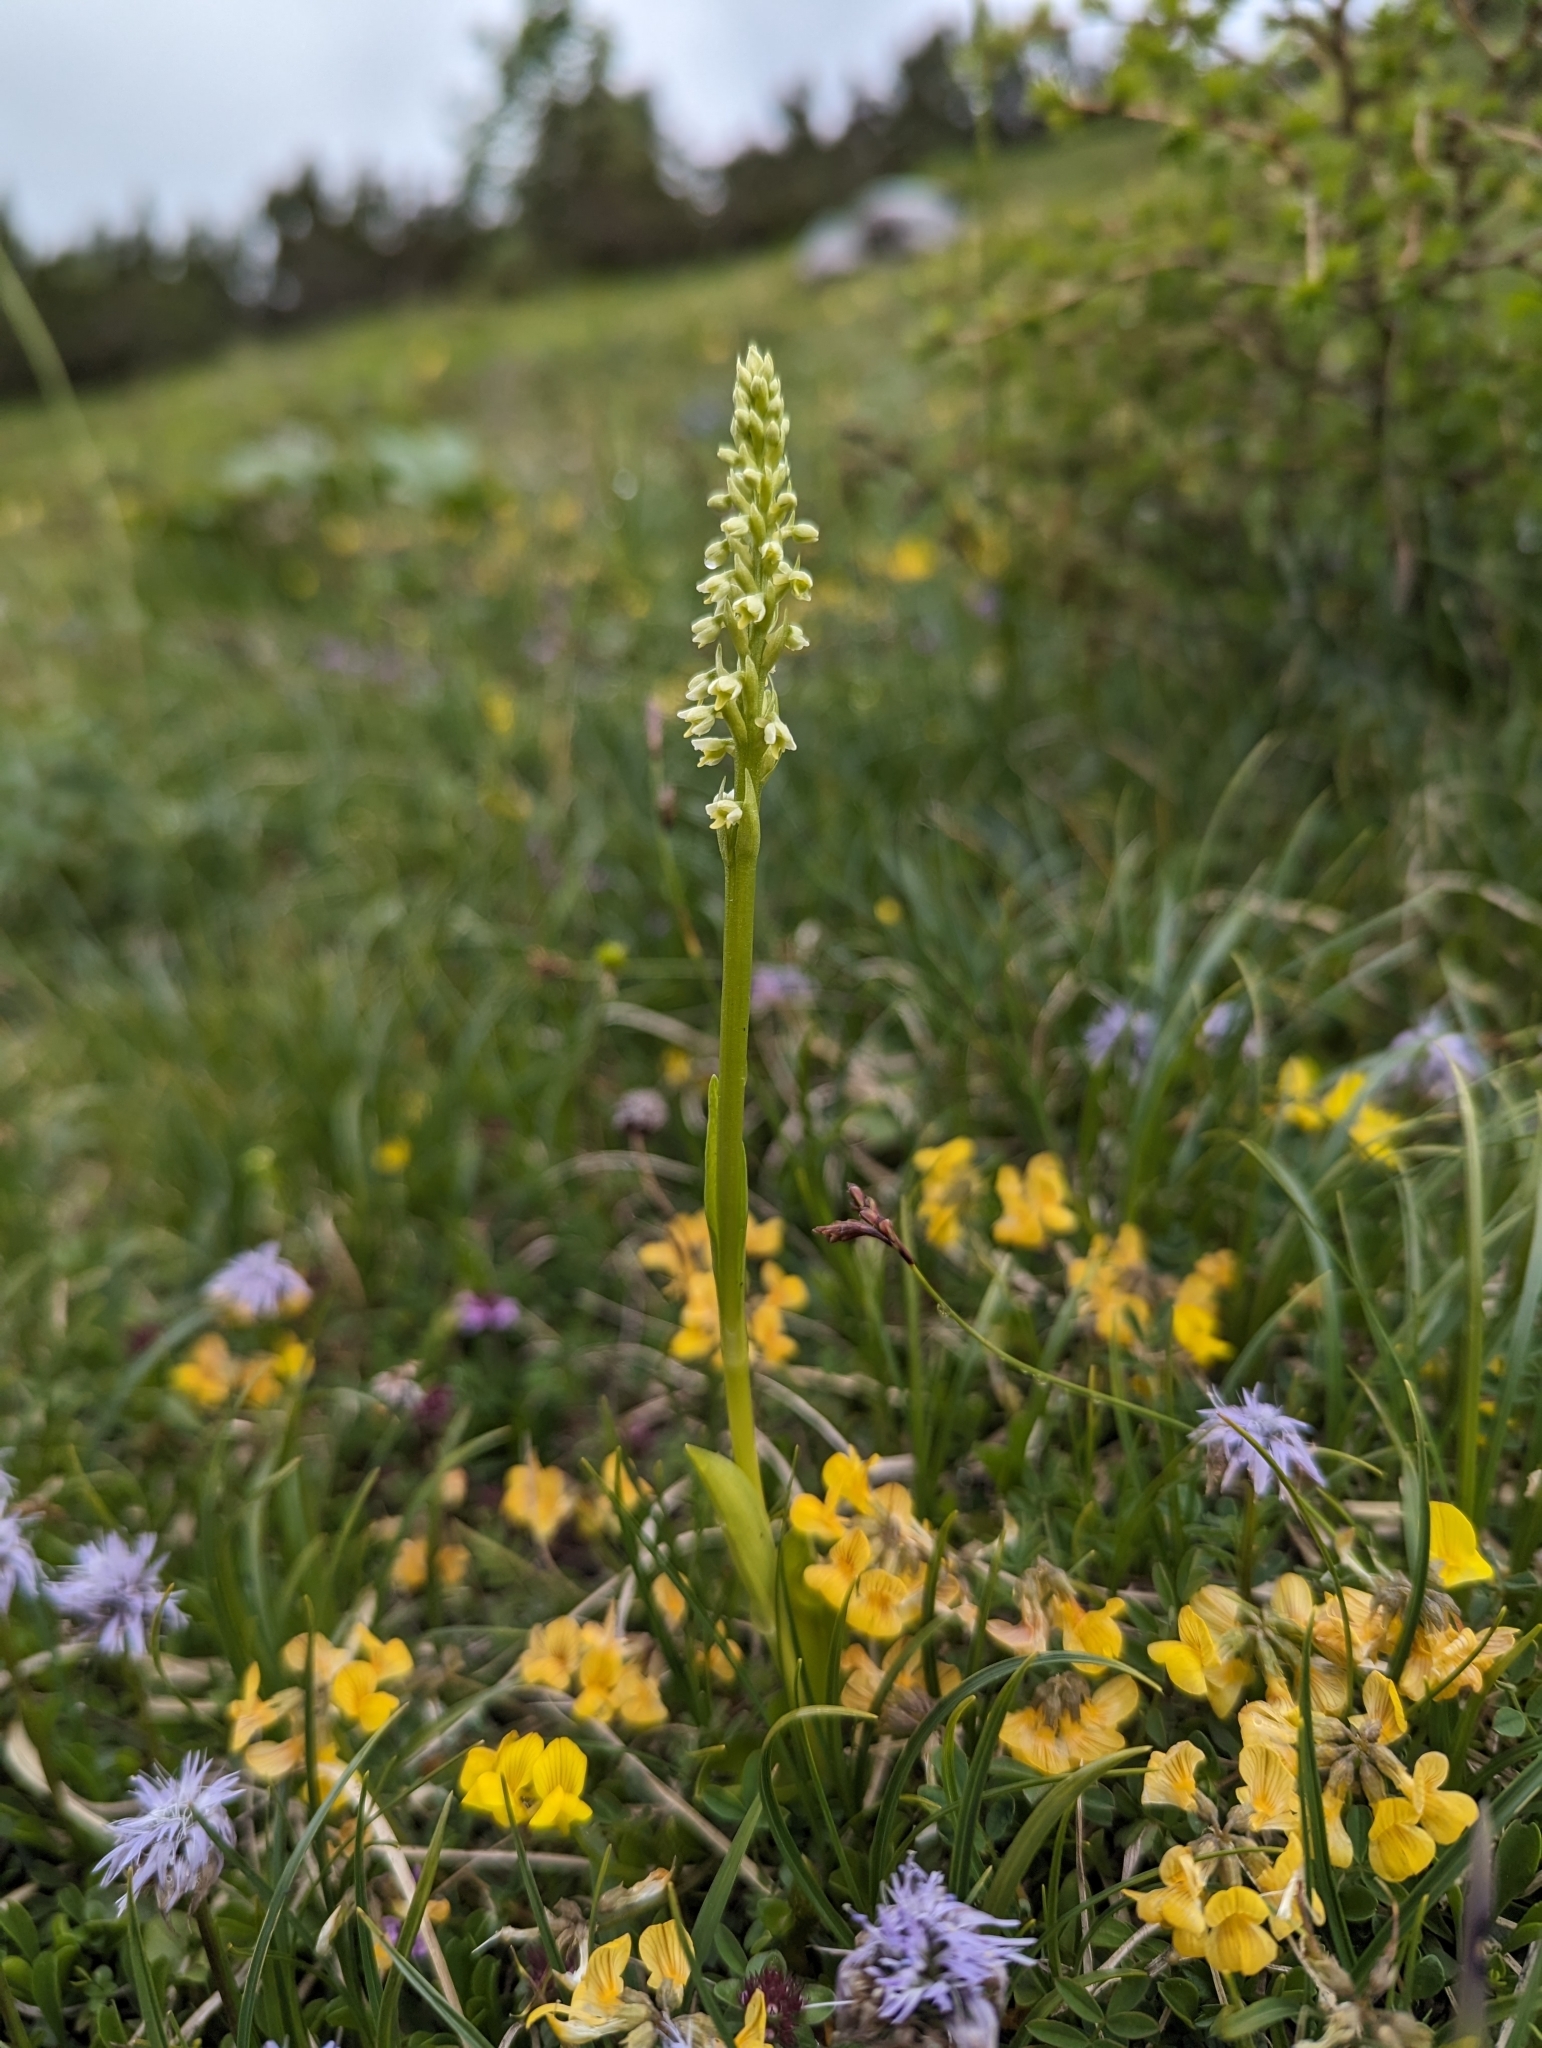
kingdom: Plantae
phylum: Tracheophyta
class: Liliopsida
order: Asparagales
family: Orchidaceae
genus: Pseudorchis
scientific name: Pseudorchis albida
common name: Small-white orchid
